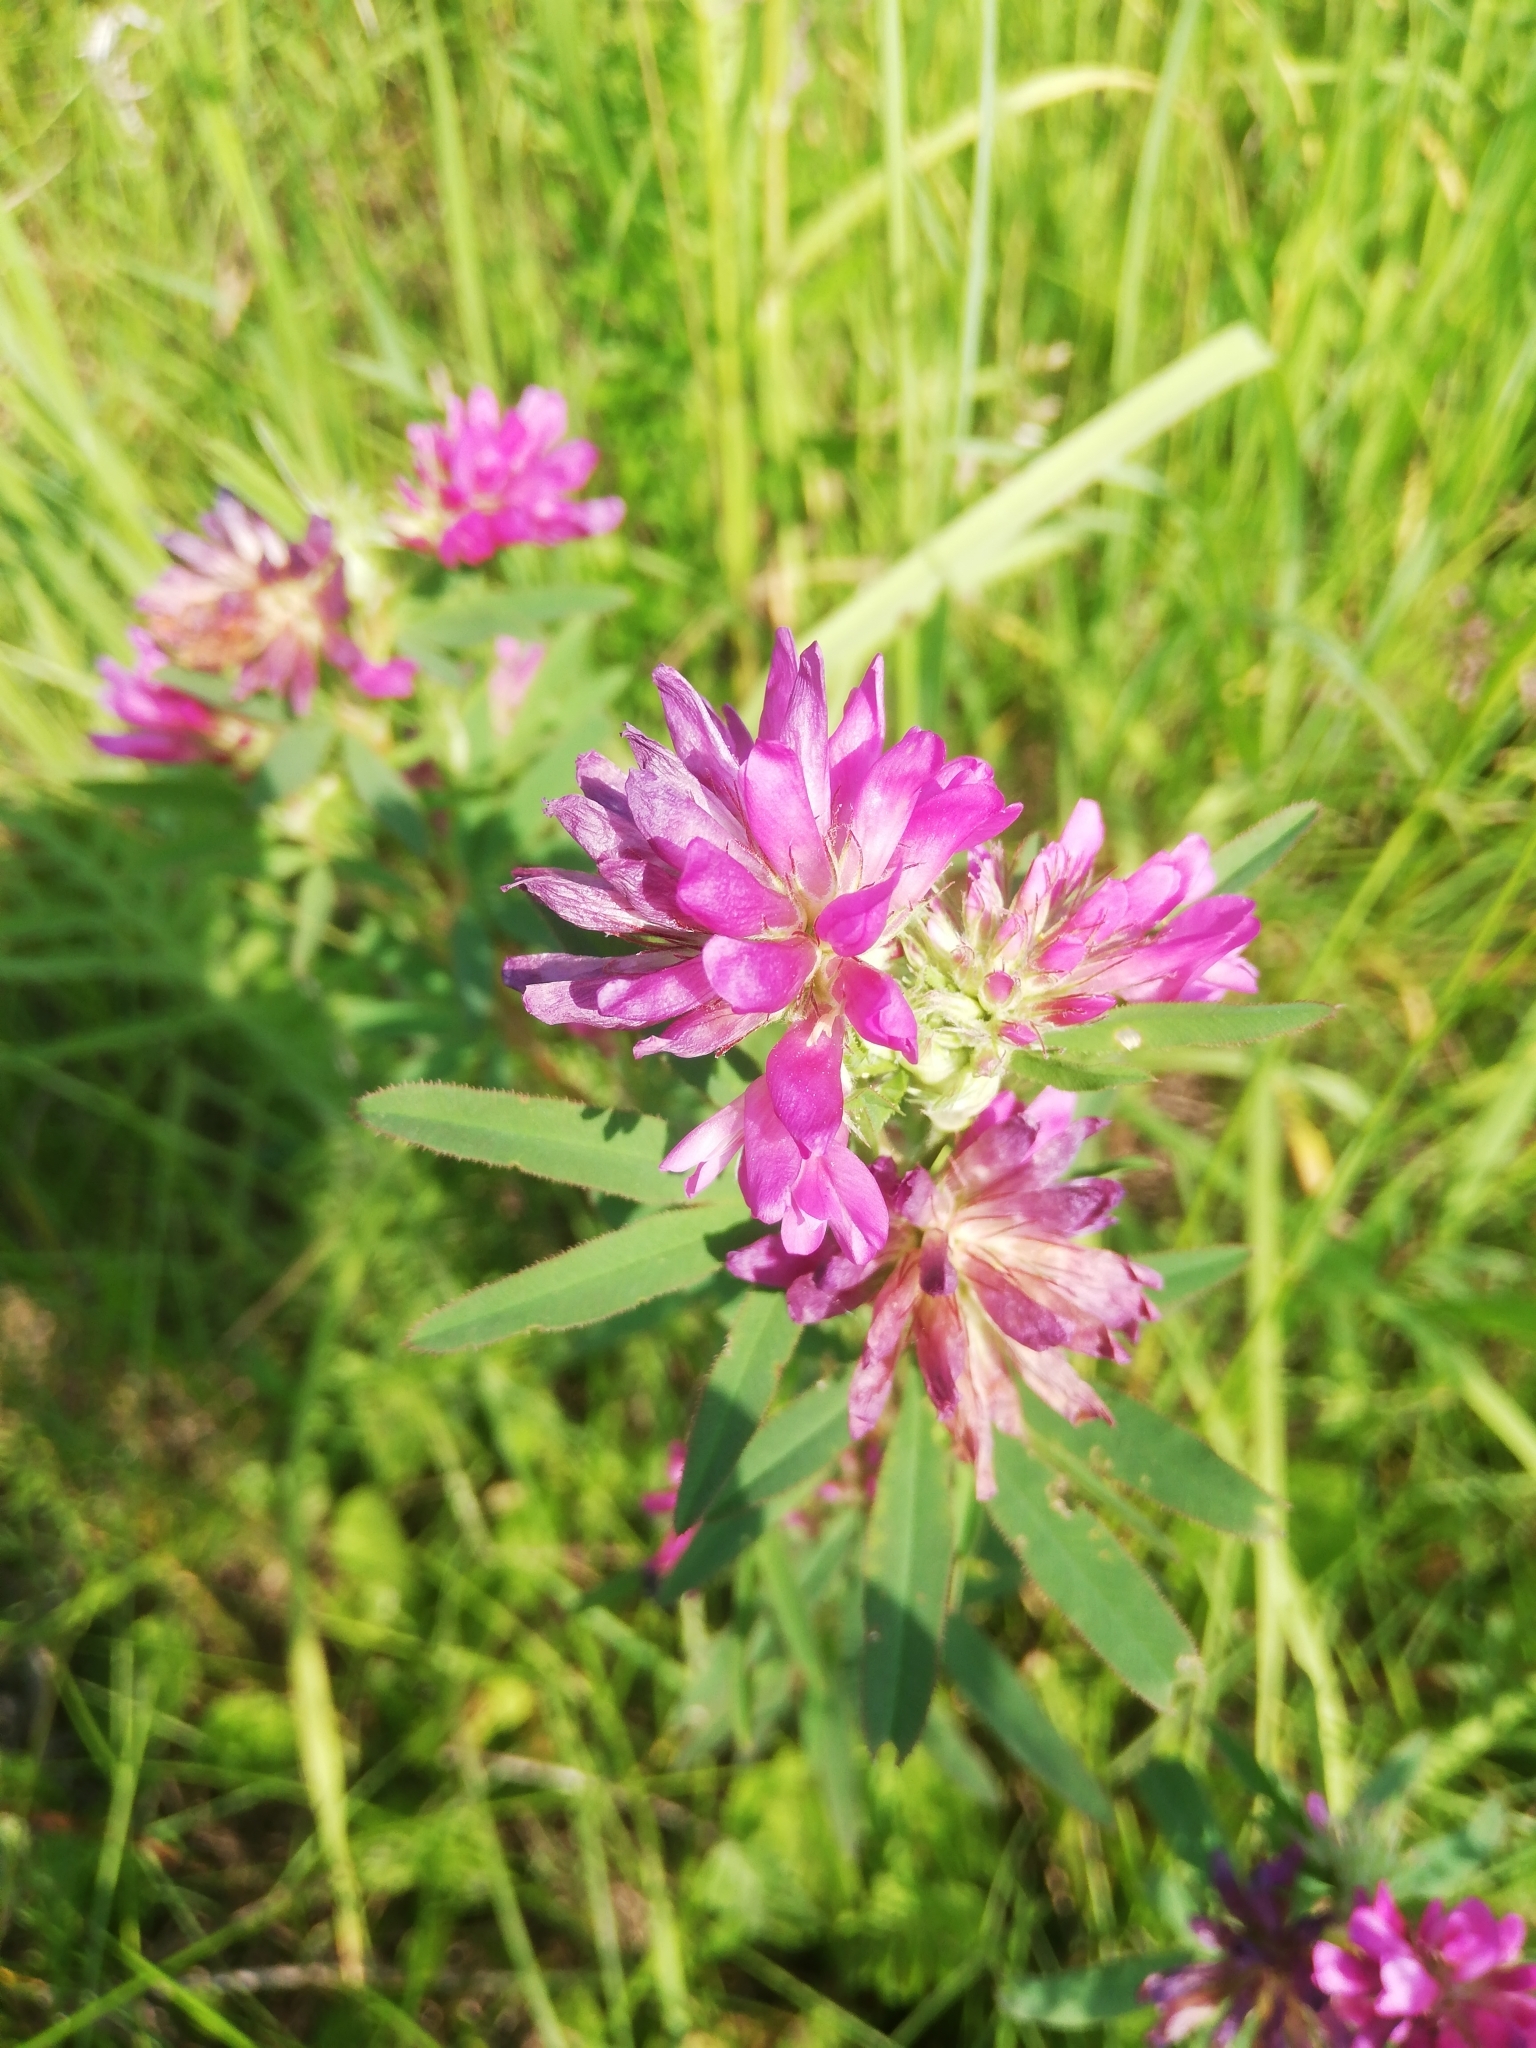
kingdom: Plantae
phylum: Tracheophyta
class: Magnoliopsida
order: Fabales
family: Fabaceae
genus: Trifolium
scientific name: Trifolium lupinaster
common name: Lupine clover
